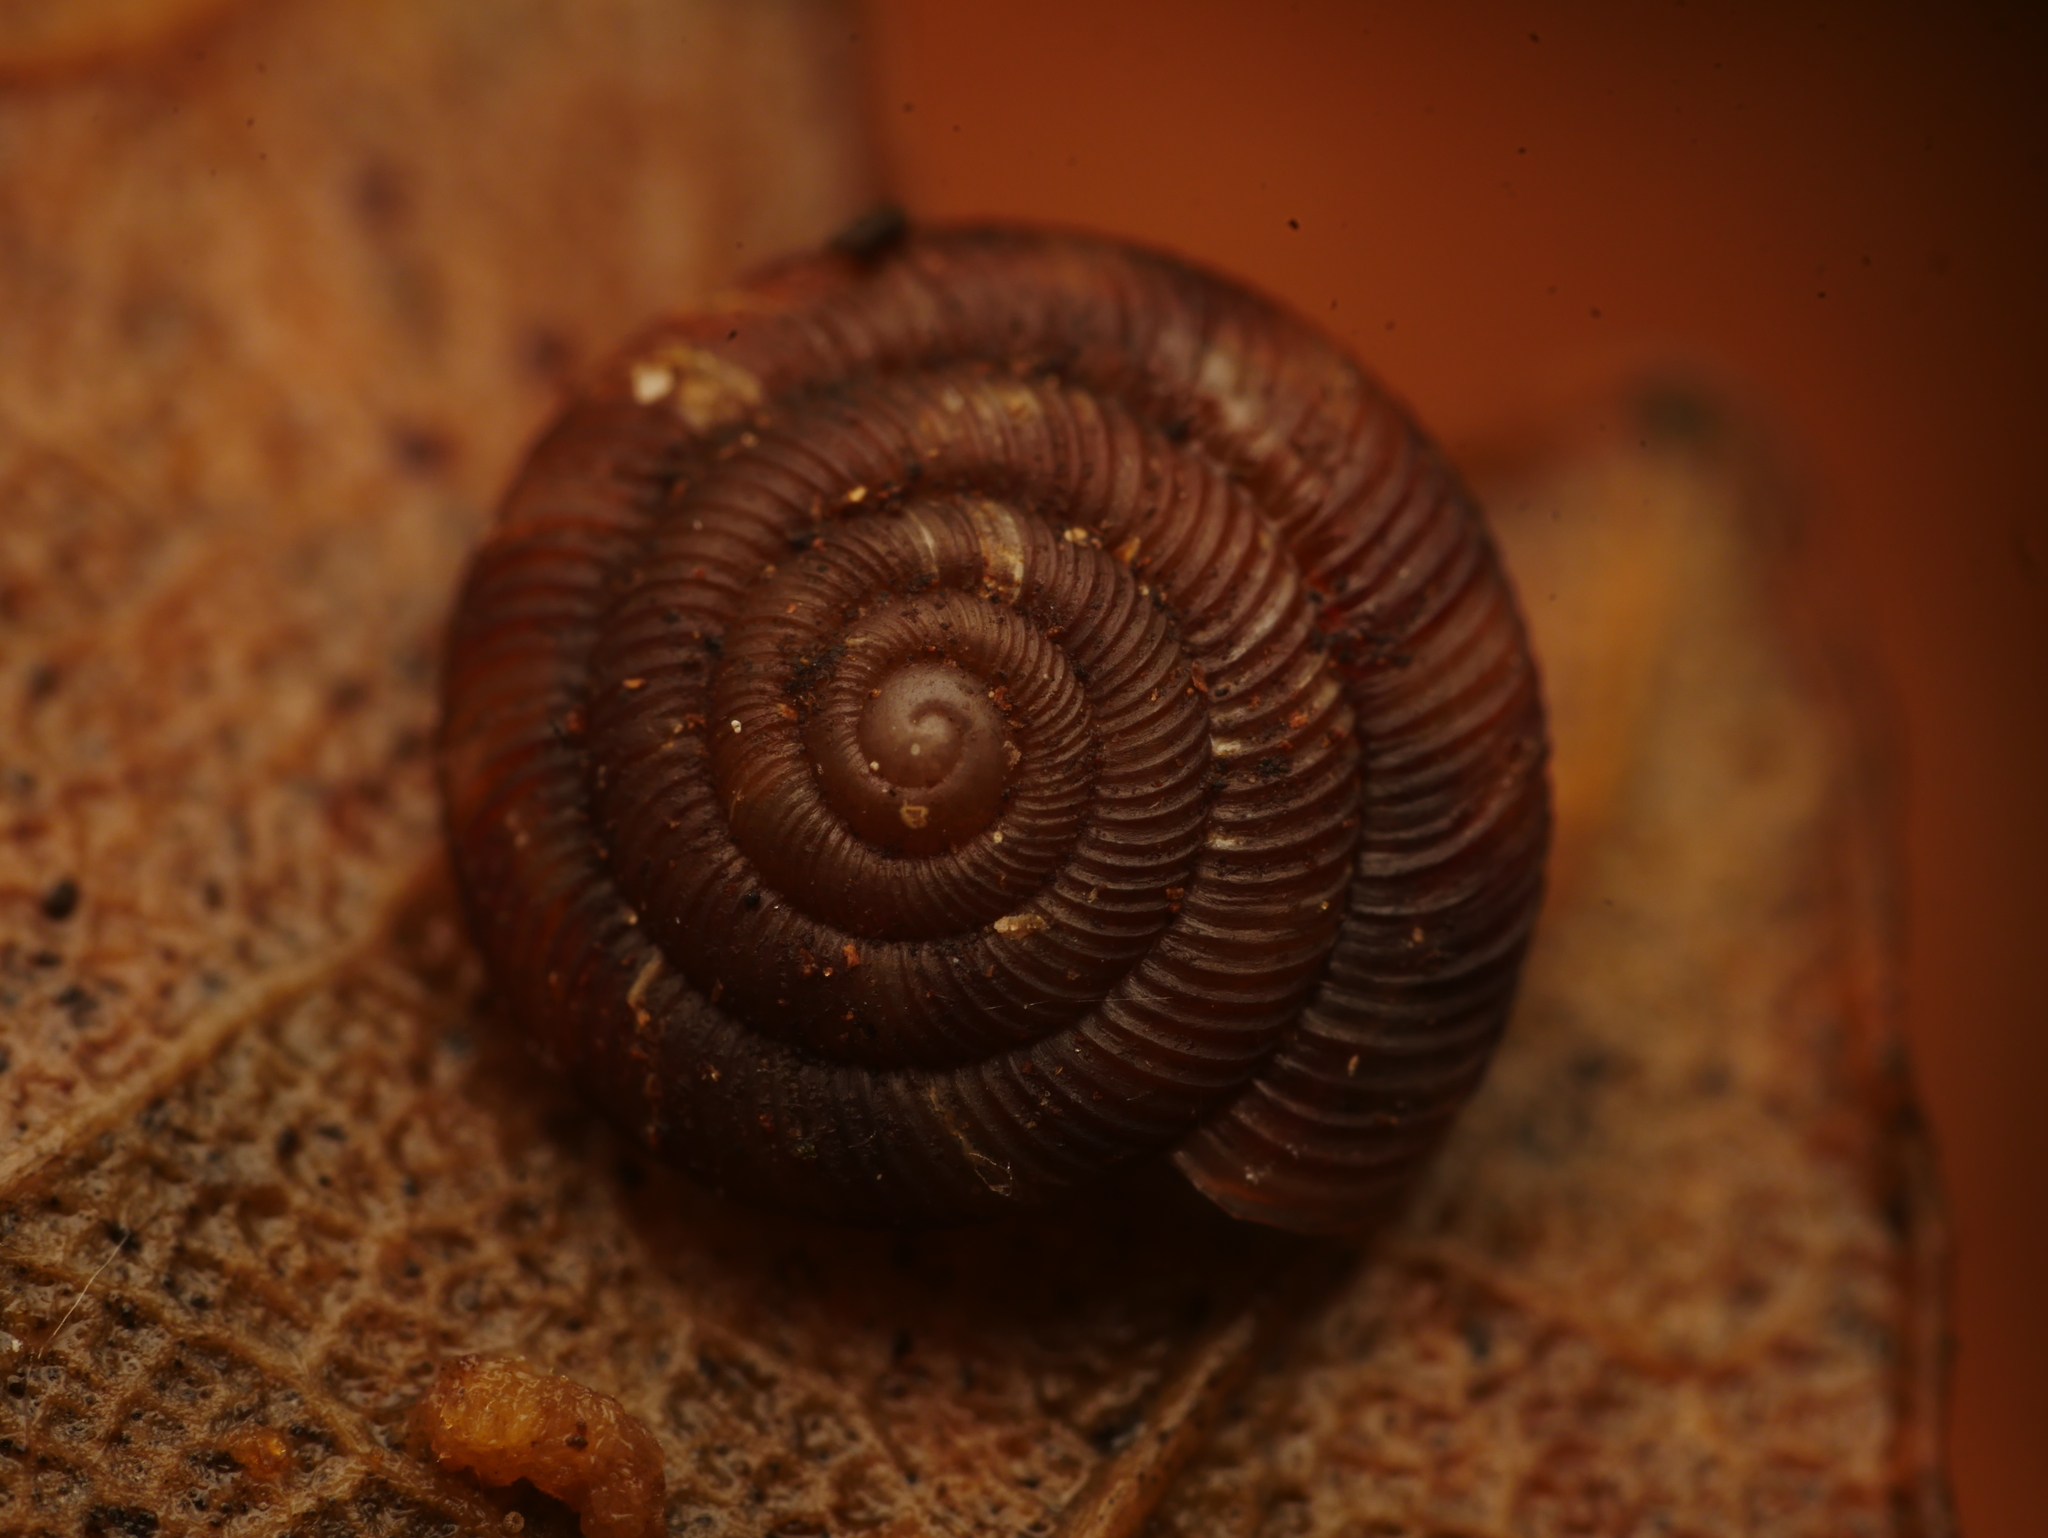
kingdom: Animalia
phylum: Mollusca
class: Gastropoda
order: Stylommatophora
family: Discidae
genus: Discus
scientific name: Discus rotundatus
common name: Rounded snail
